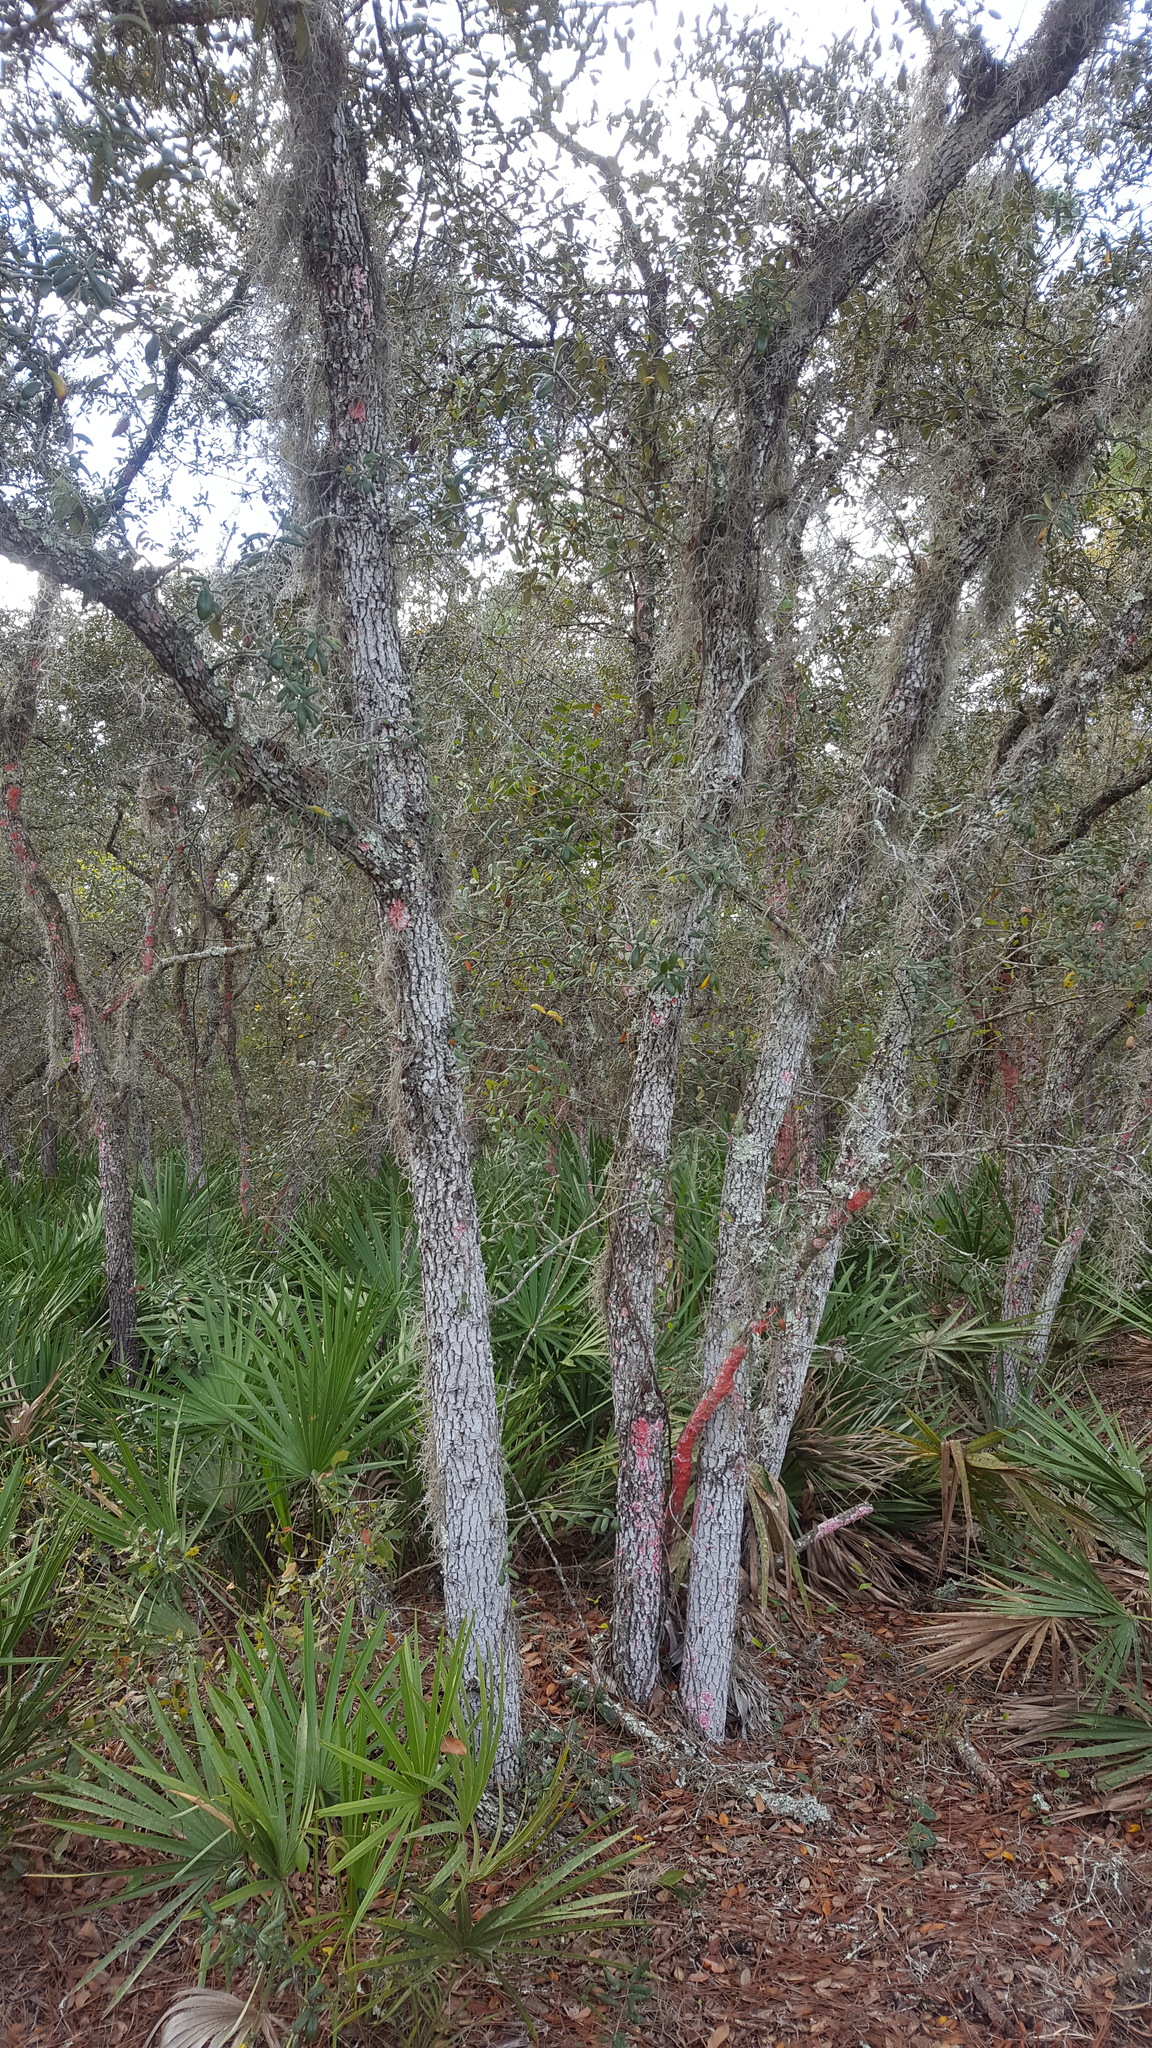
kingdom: Fungi
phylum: Ascomycota
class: Arthoniomycetes
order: Arthoniales
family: Arthoniaceae
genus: Herpothallon
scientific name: Herpothallon rubrocinctum
